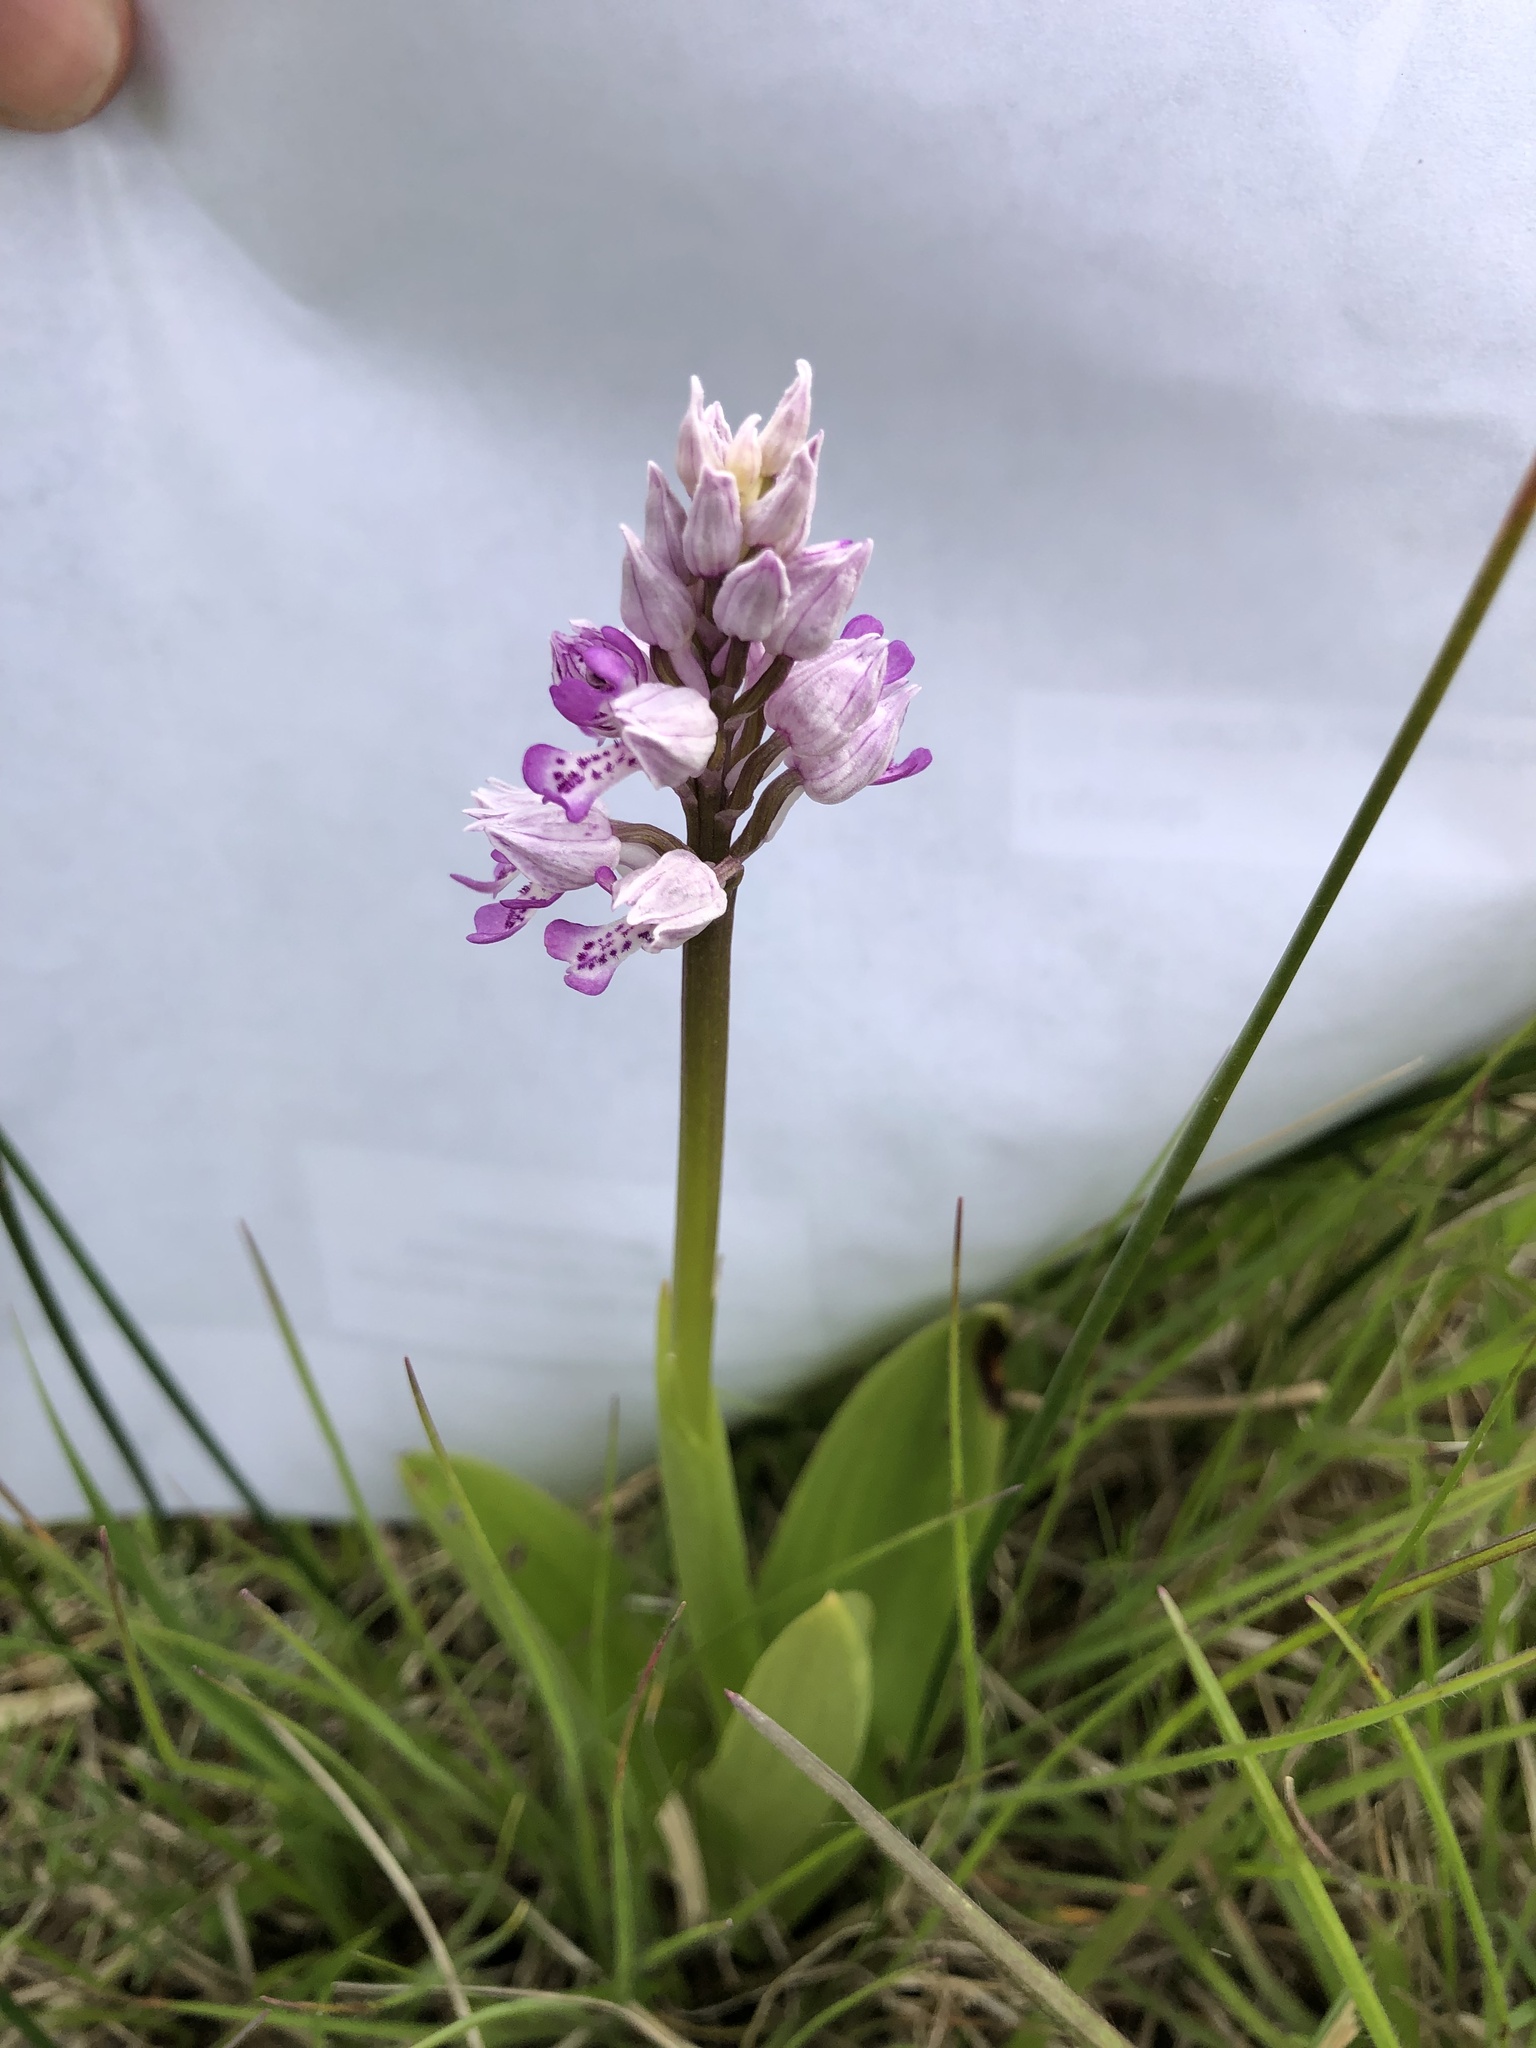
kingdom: Plantae
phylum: Tracheophyta
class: Liliopsida
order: Asparagales
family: Orchidaceae
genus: Orchis
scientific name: Orchis militaris
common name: Military orchid
